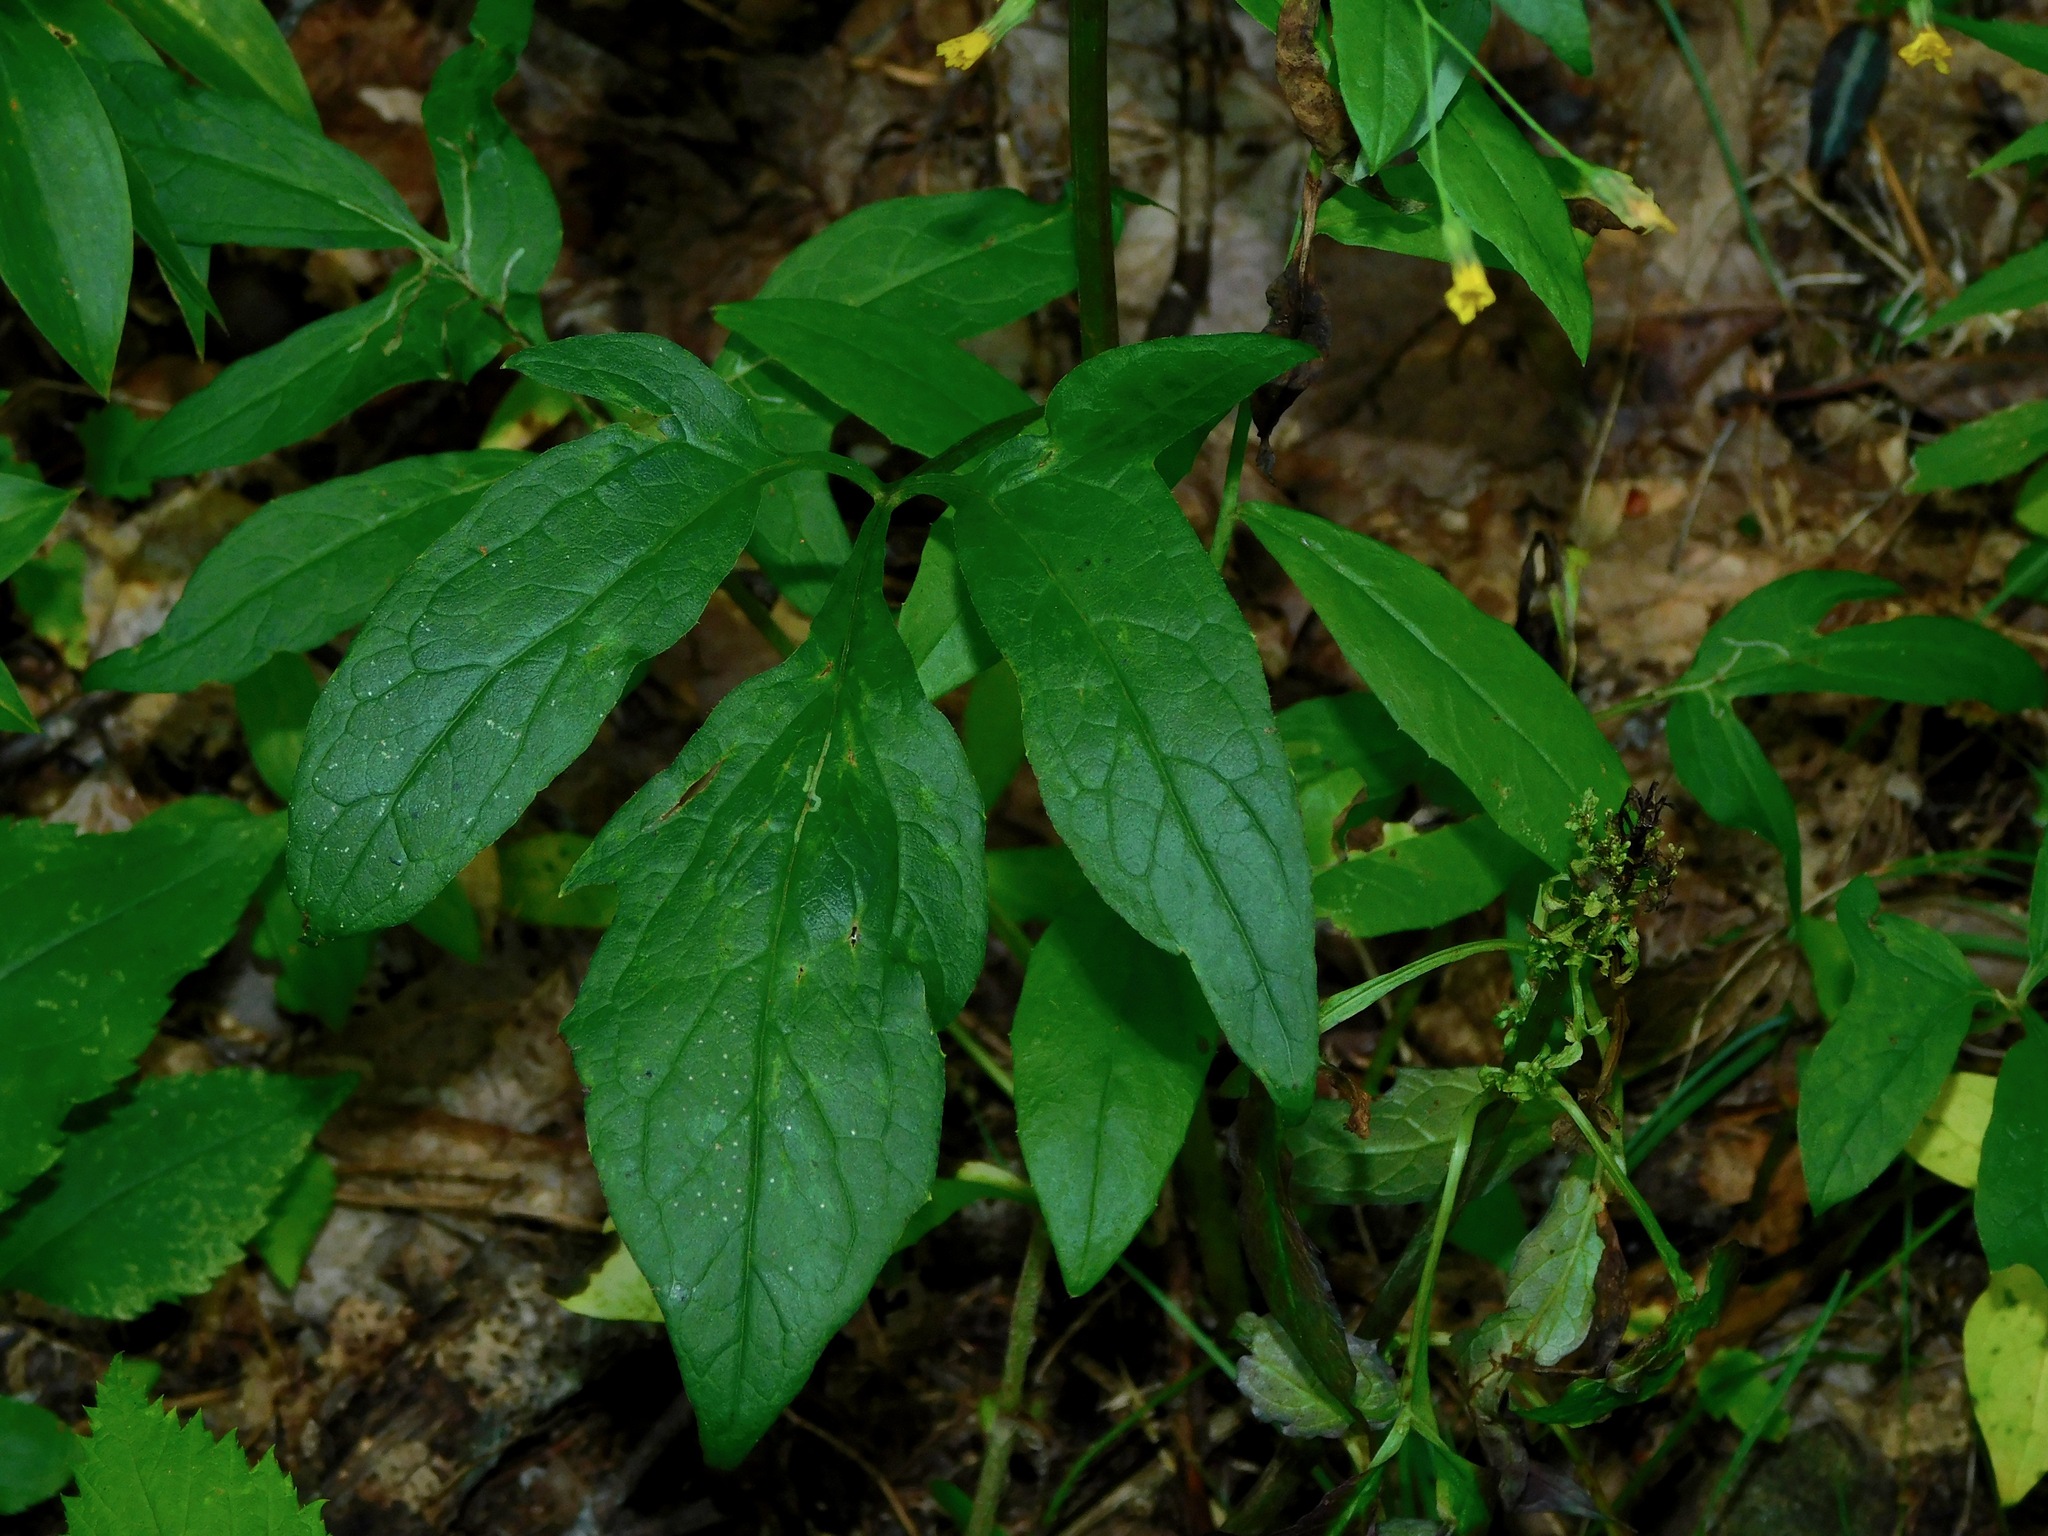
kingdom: Plantae
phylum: Tracheophyta
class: Magnoliopsida
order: Asterales
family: Asteraceae
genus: Nabalus
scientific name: Nabalus trifoliolatus
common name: Gall-of-the-earth
